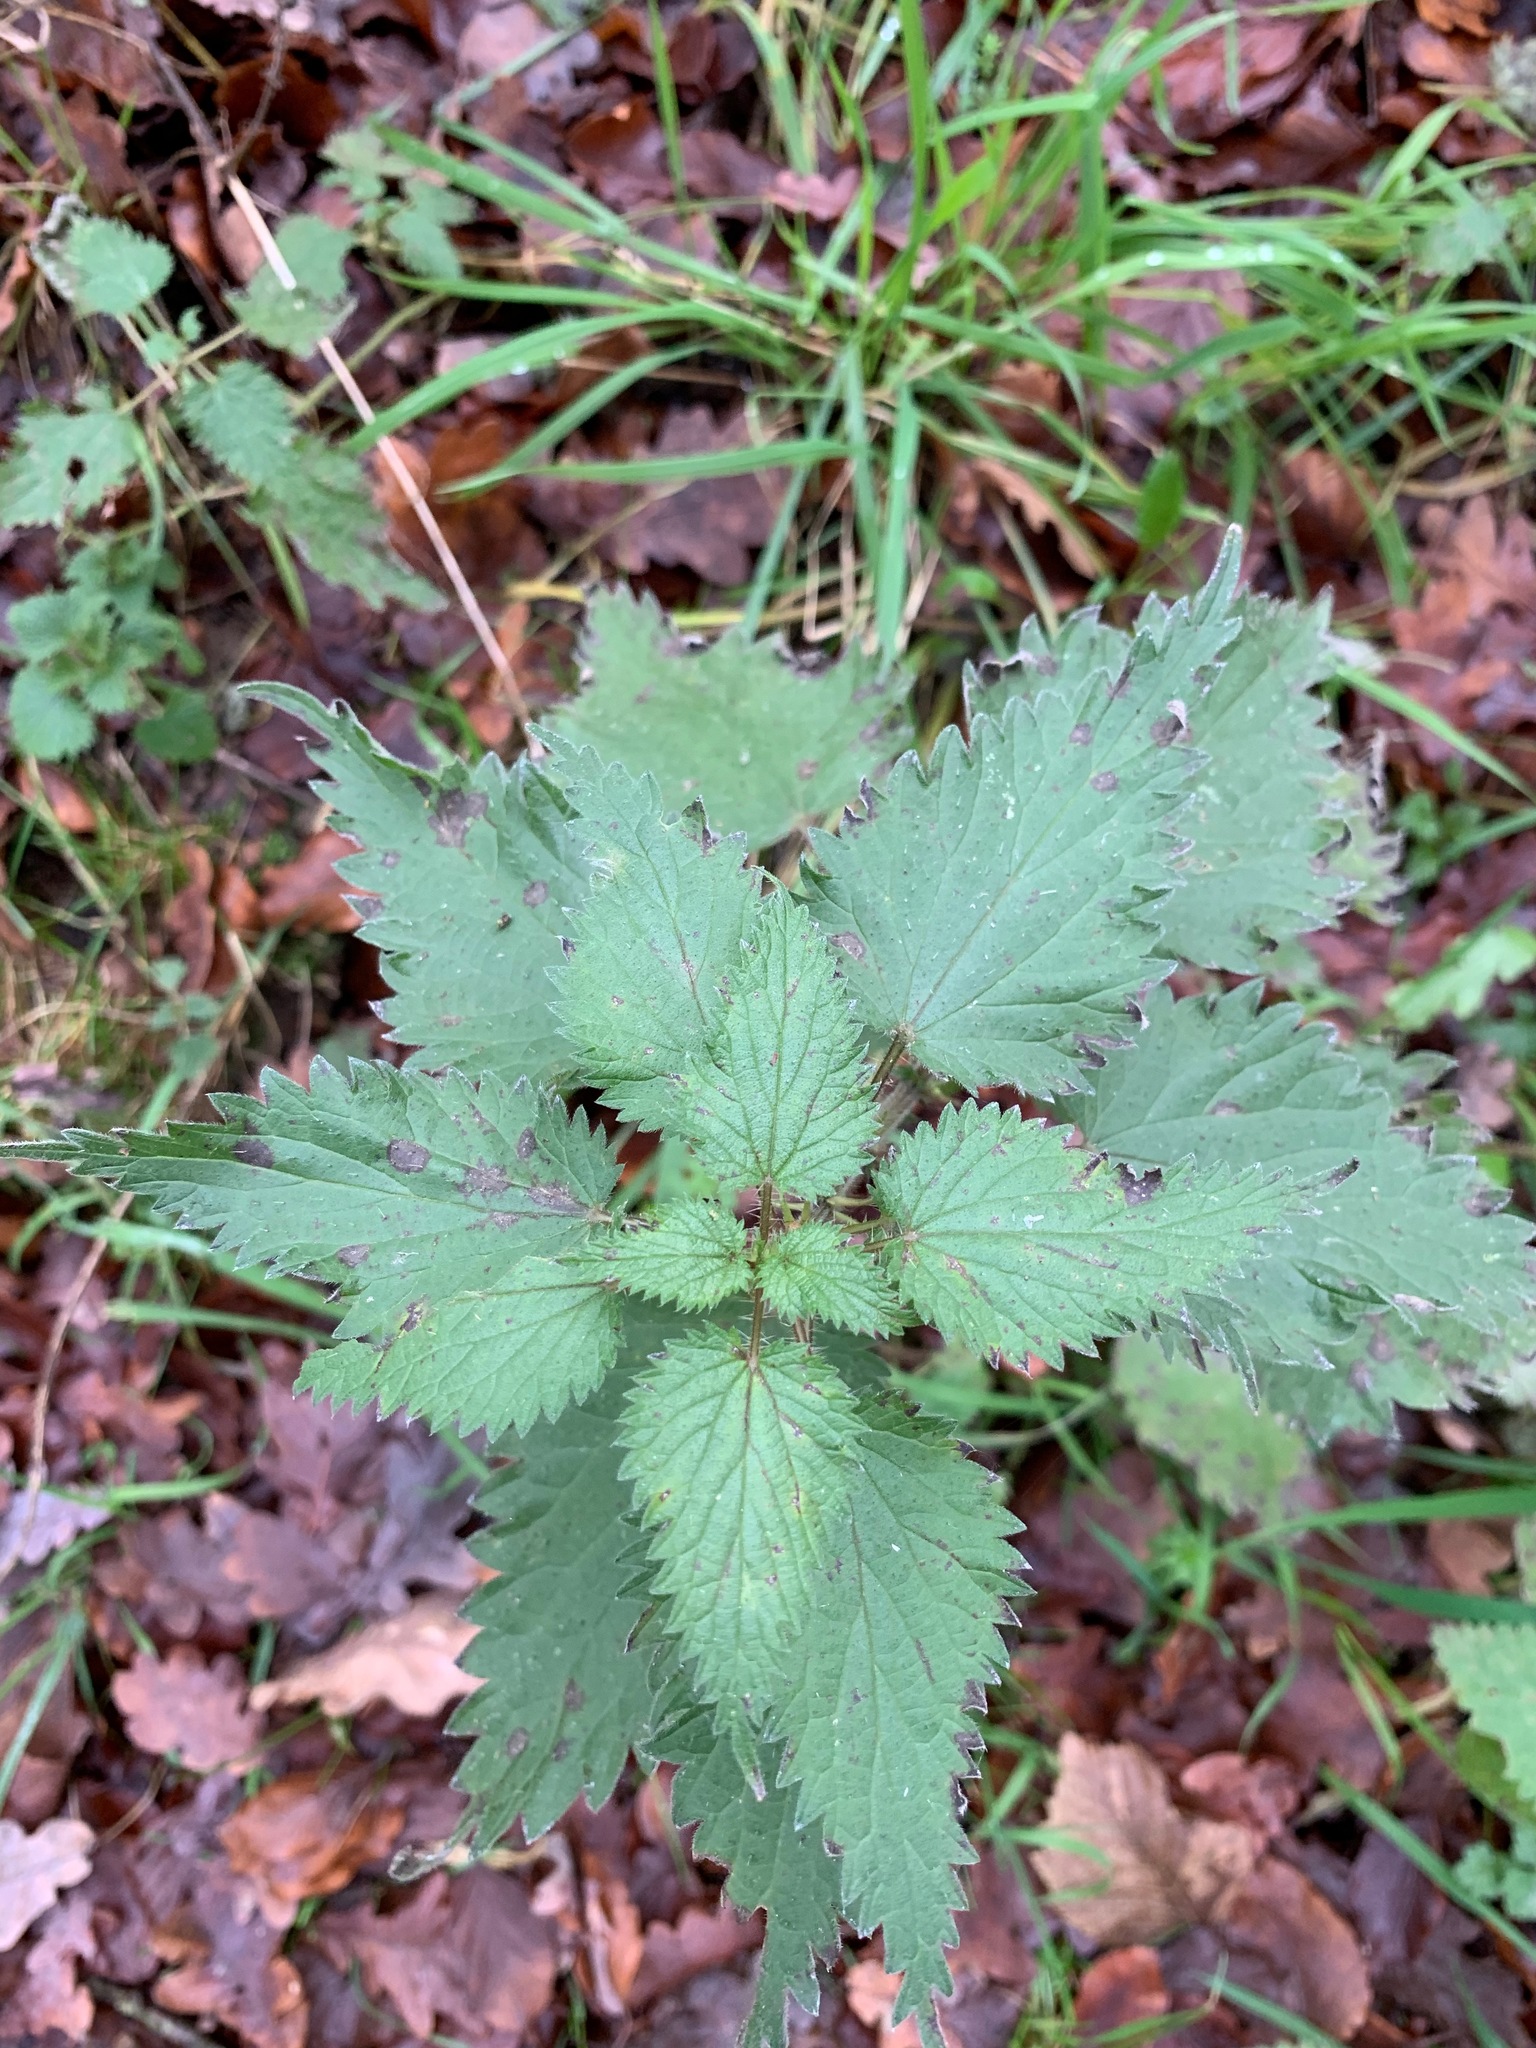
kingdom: Plantae
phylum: Tracheophyta
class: Magnoliopsida
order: Rosales
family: Urticaceae
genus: Urtica
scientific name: Urtica dioica
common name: Common nettle
